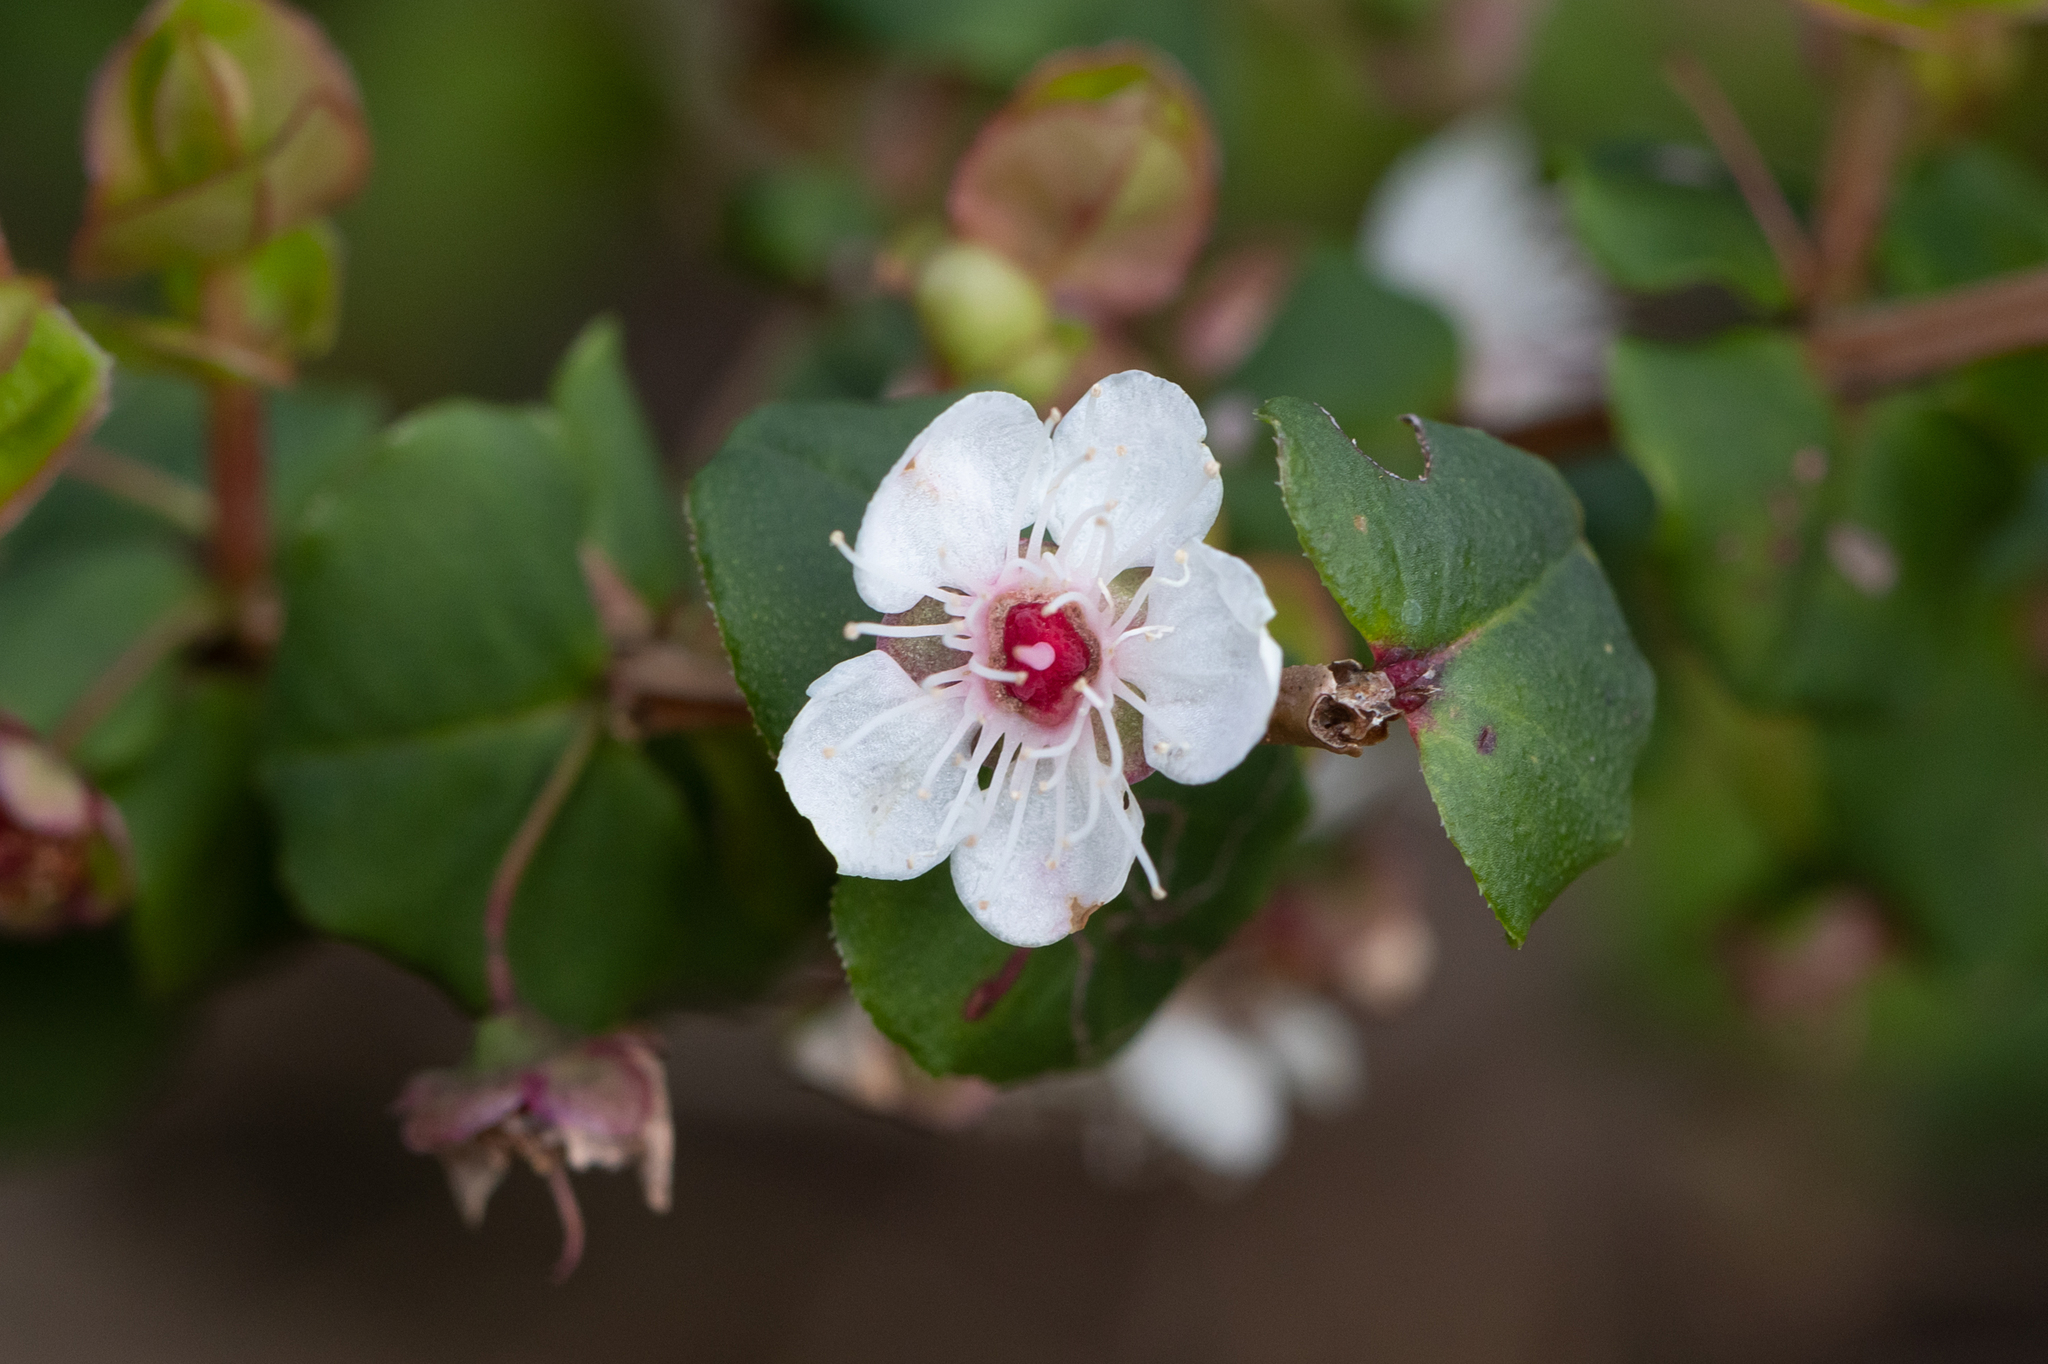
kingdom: Plantae
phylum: Tracheophyta
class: Magnoliopsida
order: Myrtales
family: Myrtaceae
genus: Hypocalymma
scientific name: Hypocalymma cordifolium
